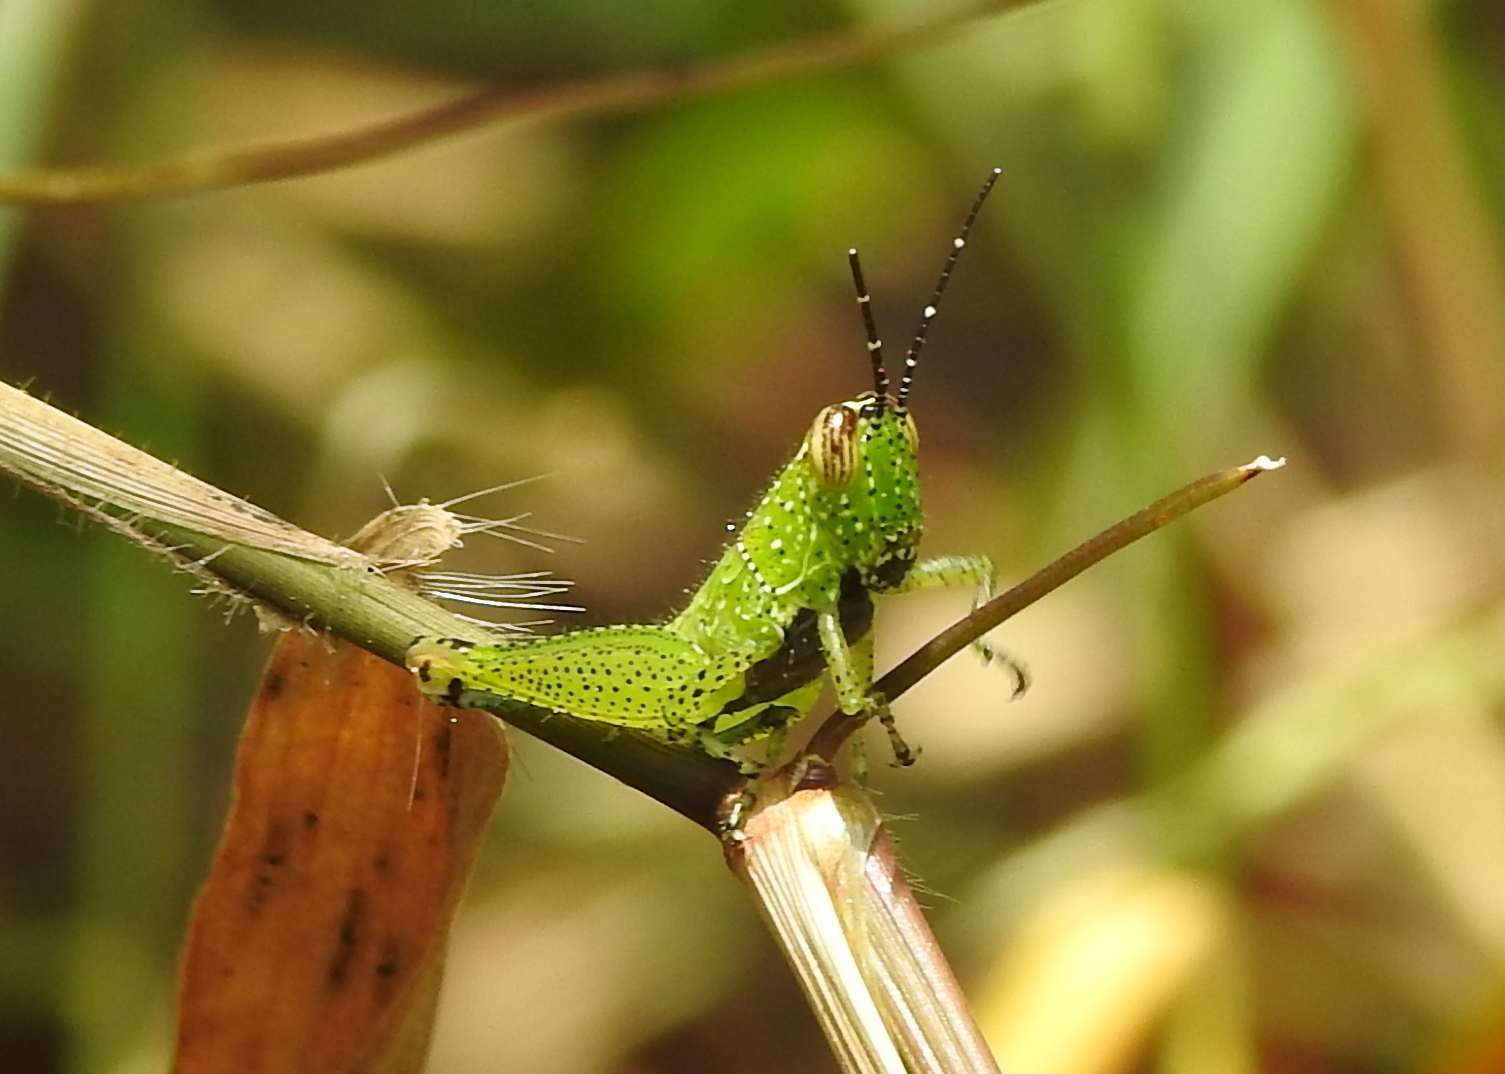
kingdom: Animalia
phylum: Arthropoda
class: Insecta
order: Orthoptera
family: Acrididae
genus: Xenocatantops
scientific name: Xenocatantops humile
